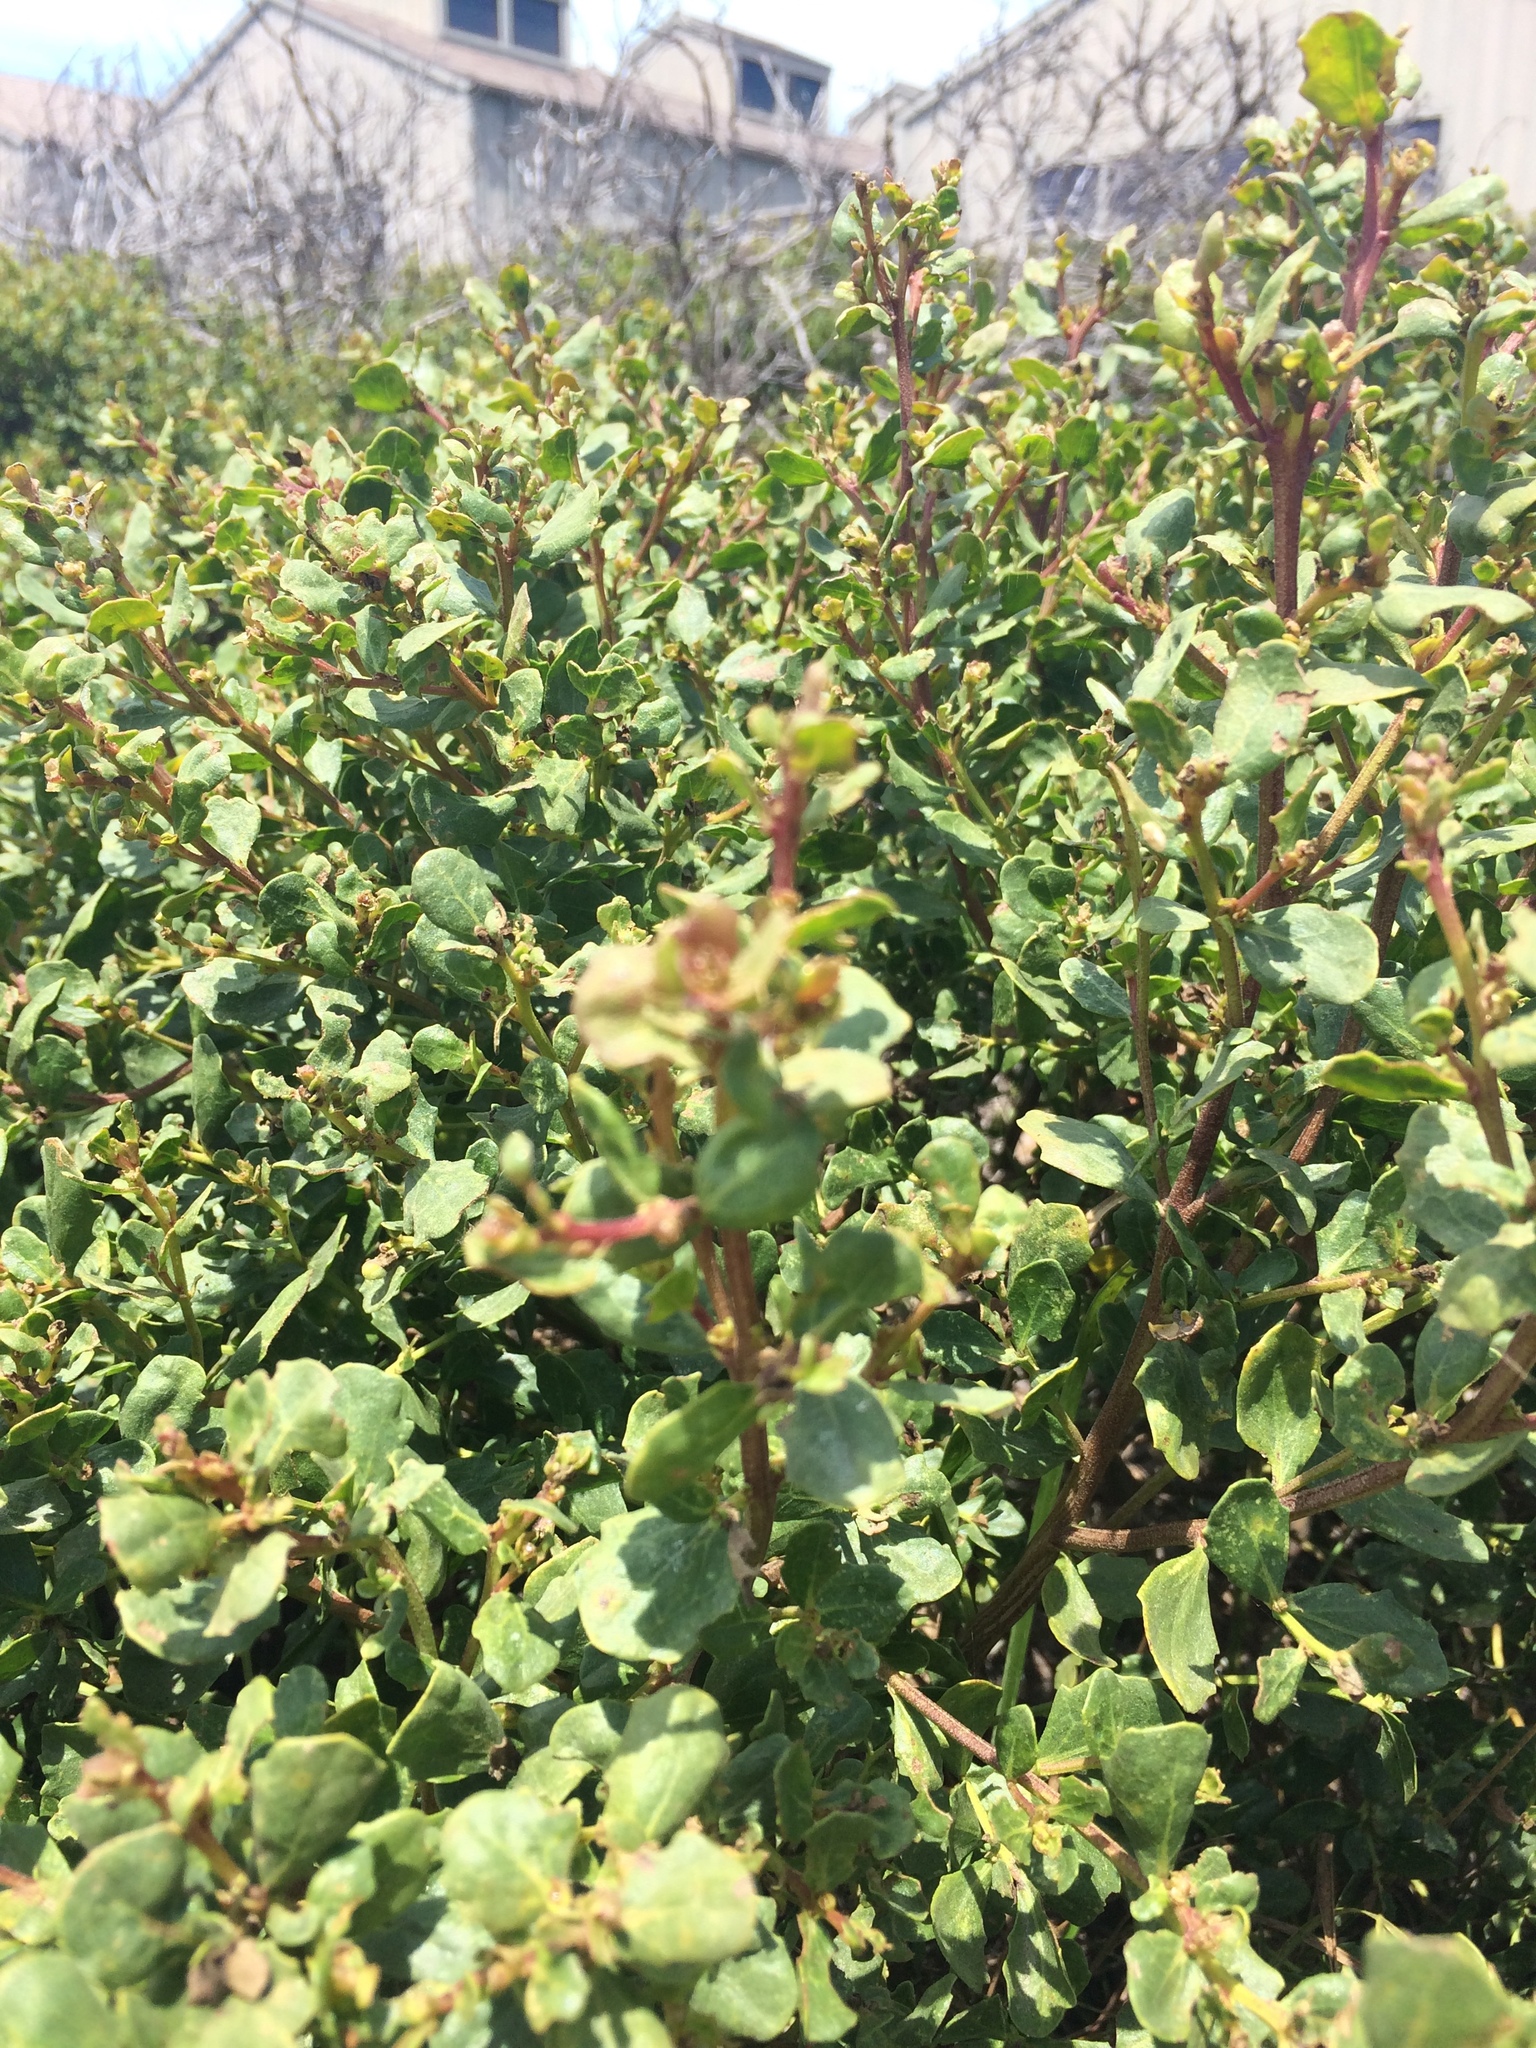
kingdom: Plantae
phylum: Tracheophyta
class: Magnoliopsida
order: Asterales
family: Asteraceae
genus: Baccharis
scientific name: Baccharis pilularis
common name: Coyotebrush
